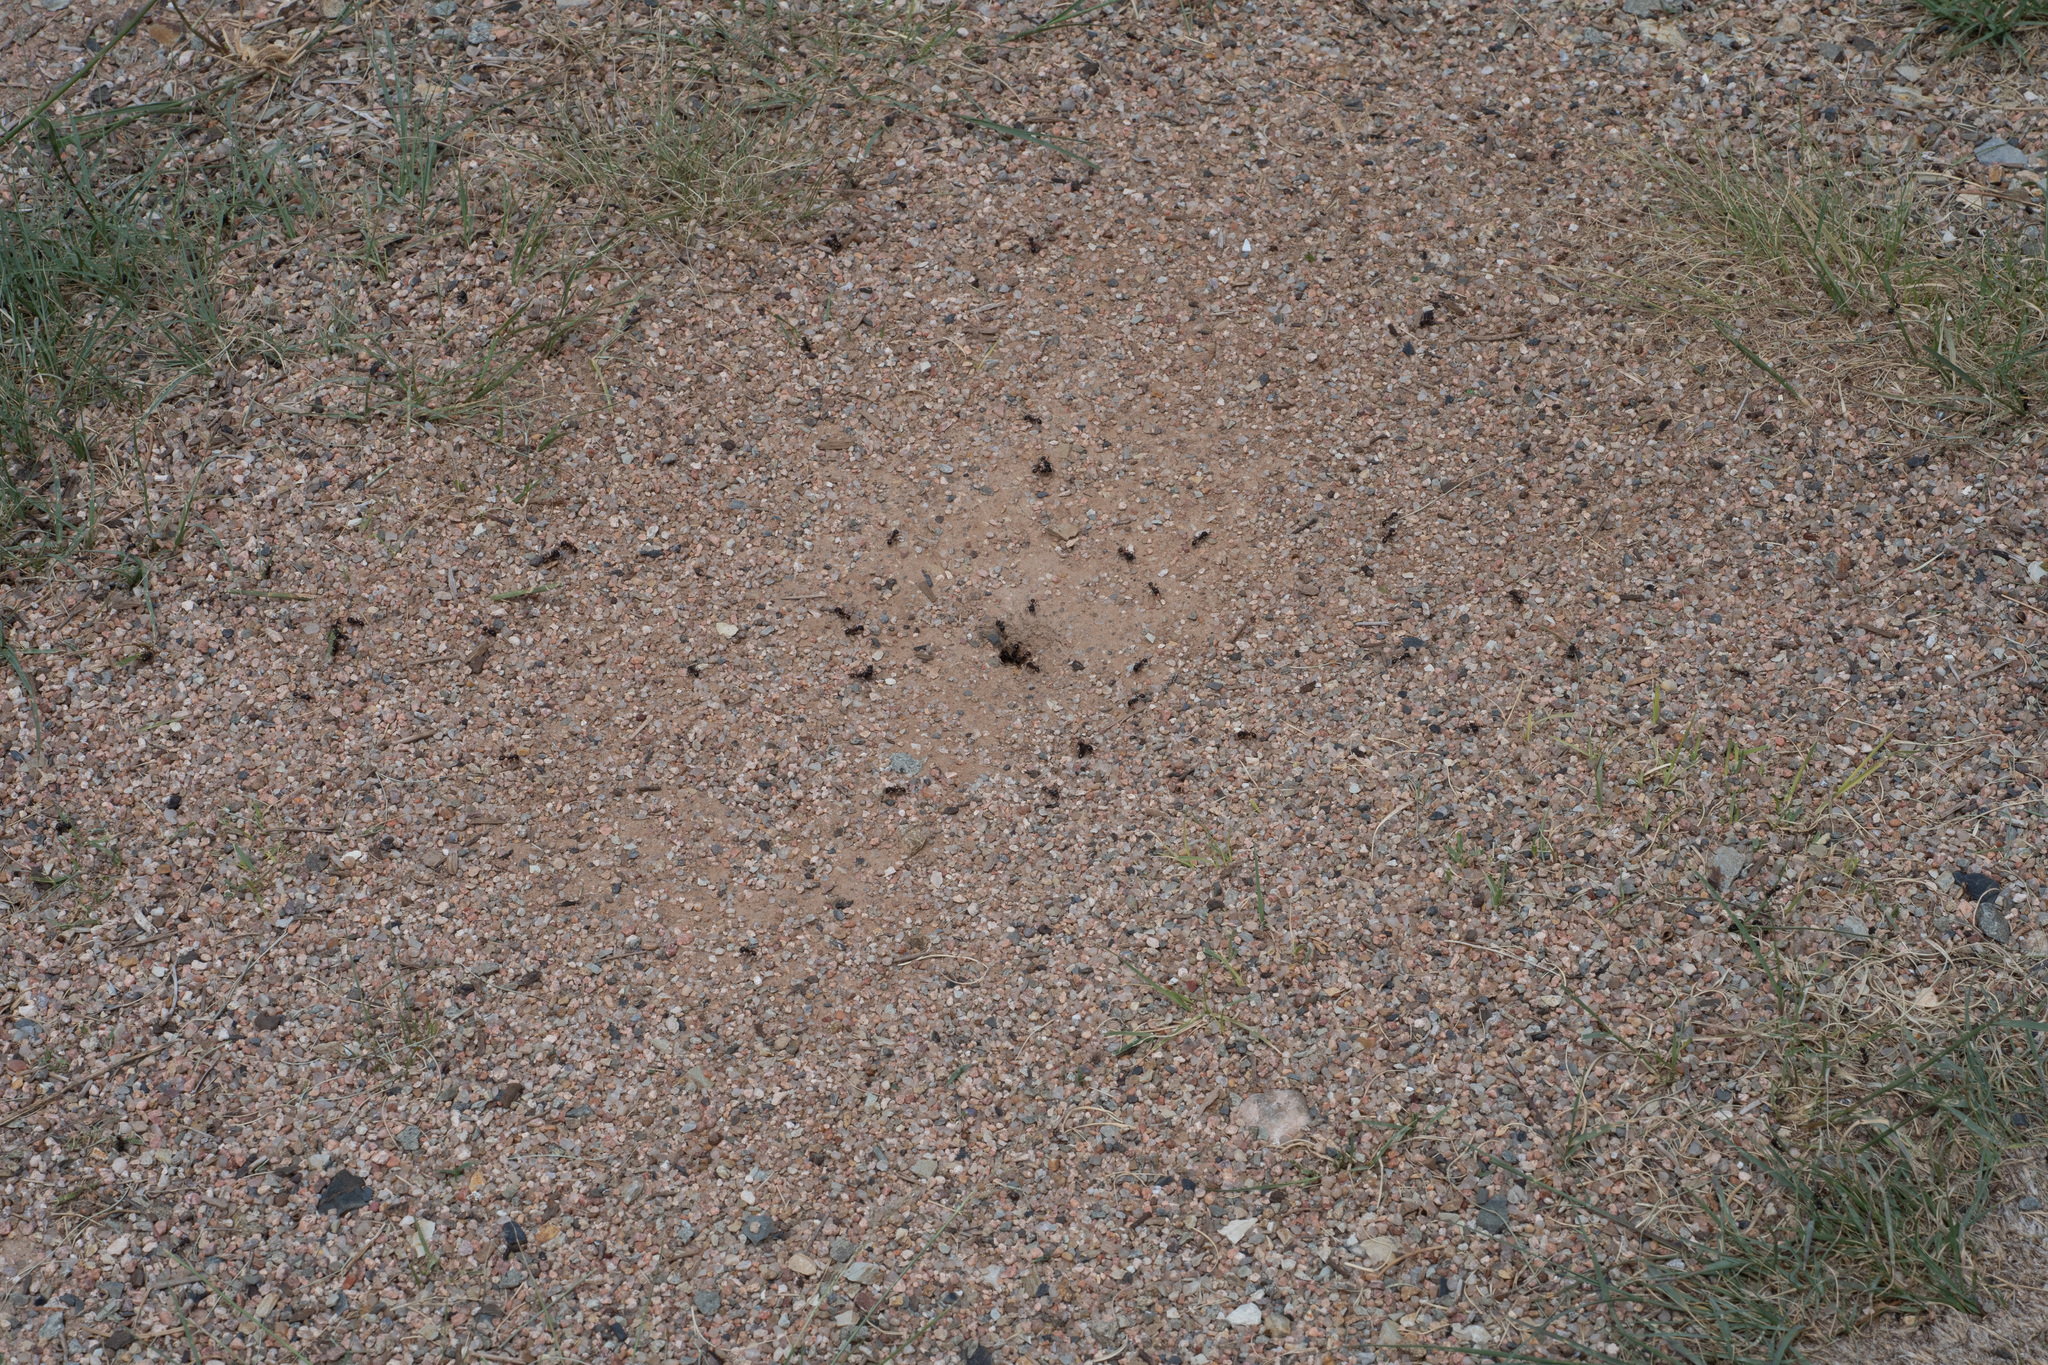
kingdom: Animalia
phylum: Arthropoda
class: Insecta
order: Hymenoptera
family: Formicidae
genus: Pogonomyrmex
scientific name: Pogonomyrmex rugosus
